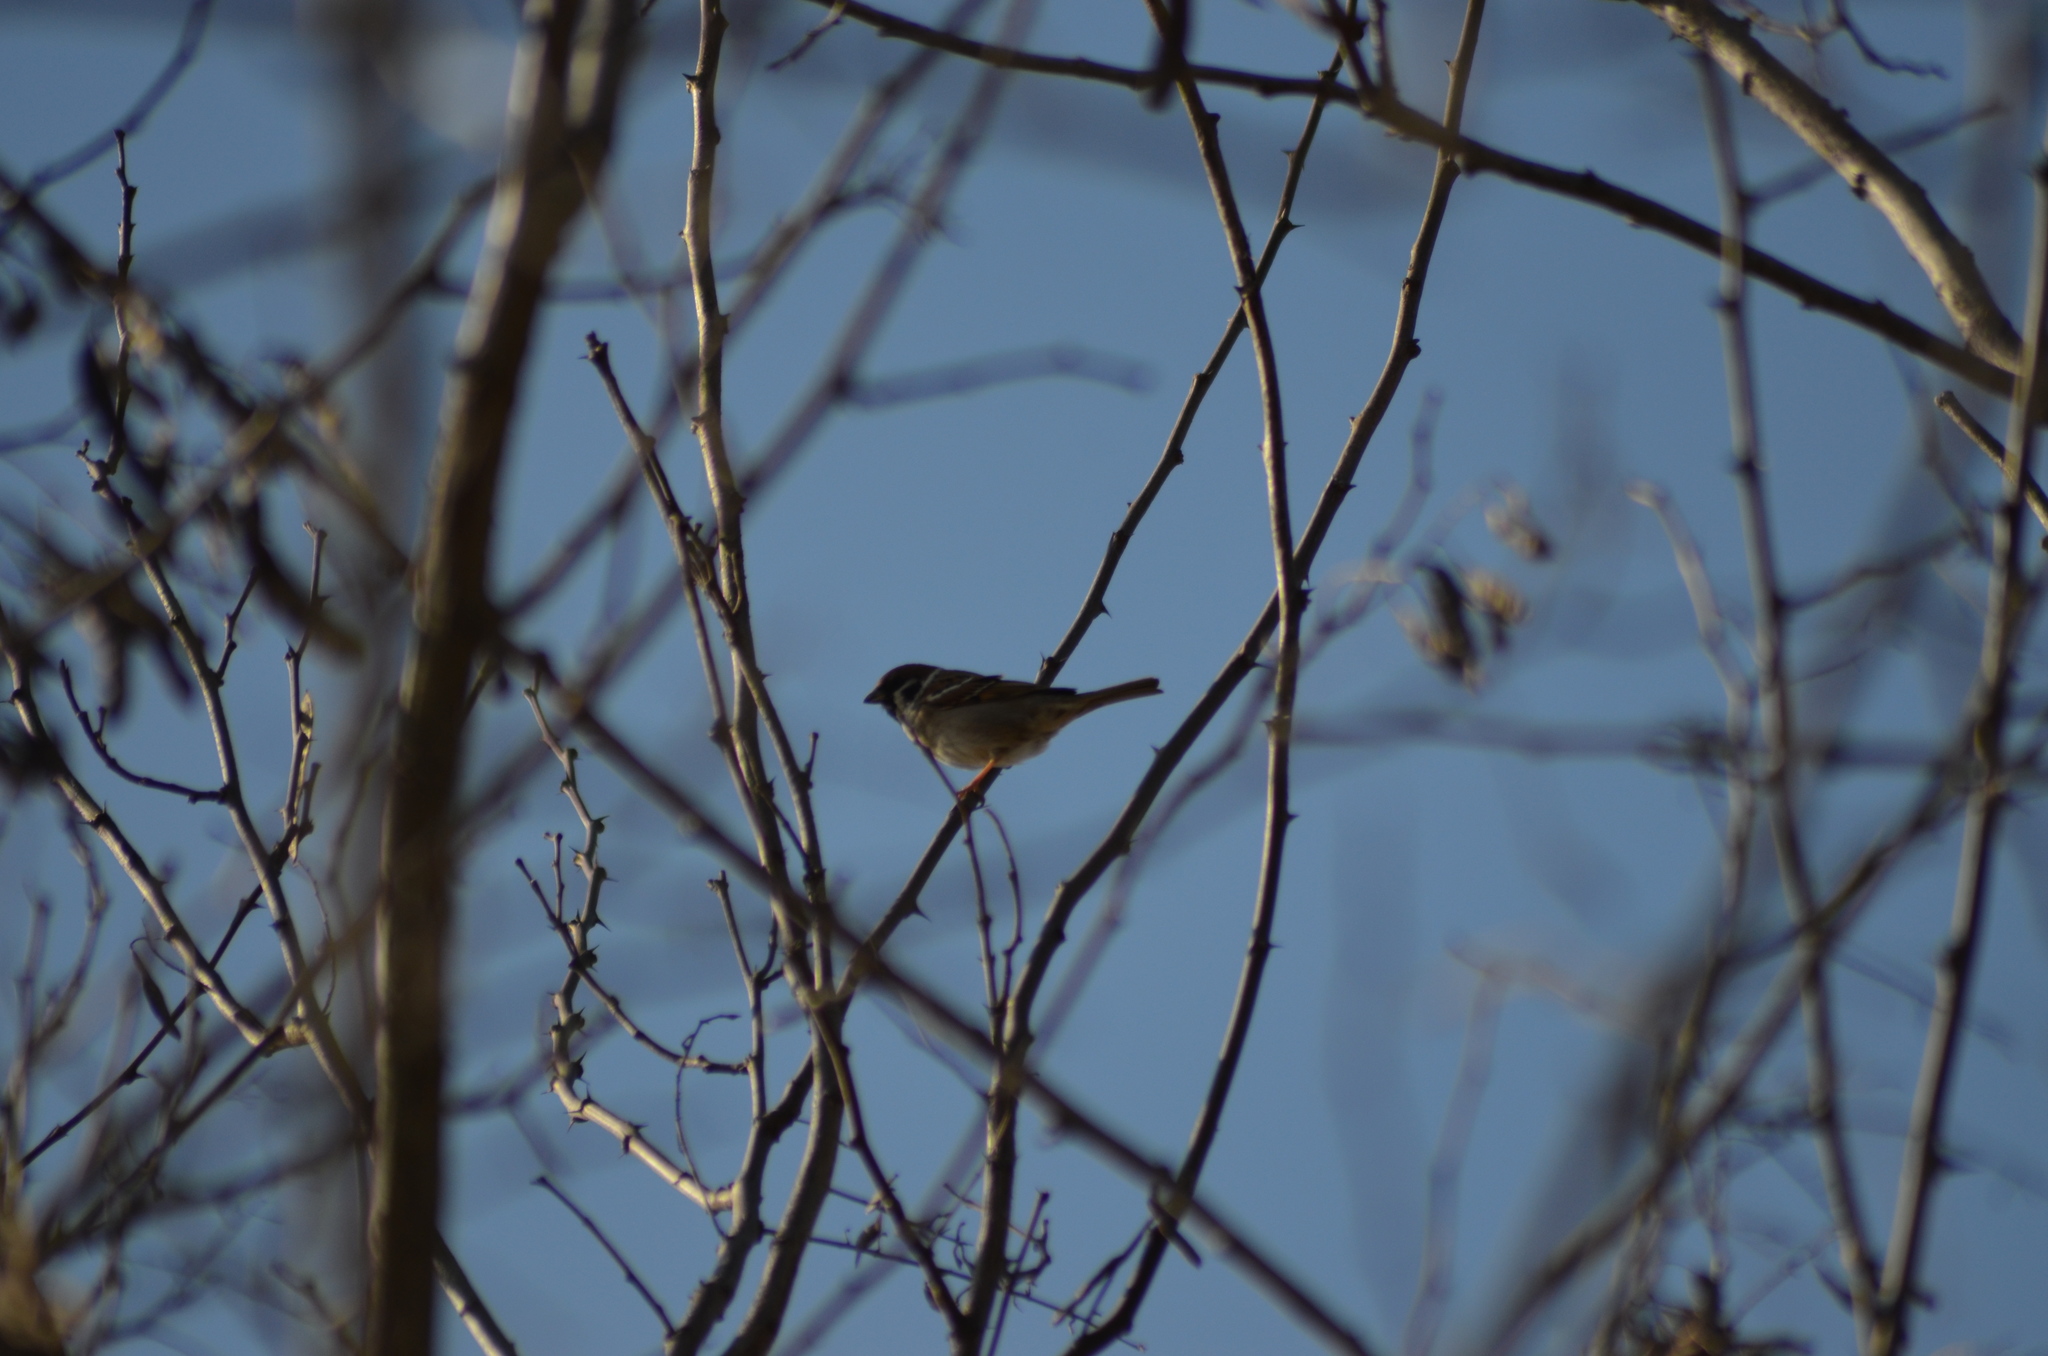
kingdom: Animalia
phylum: Chordata
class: Aves
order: Passeriformes
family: Passeridae
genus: Passer
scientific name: Passer montanus
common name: Eurasian tree sparrow
